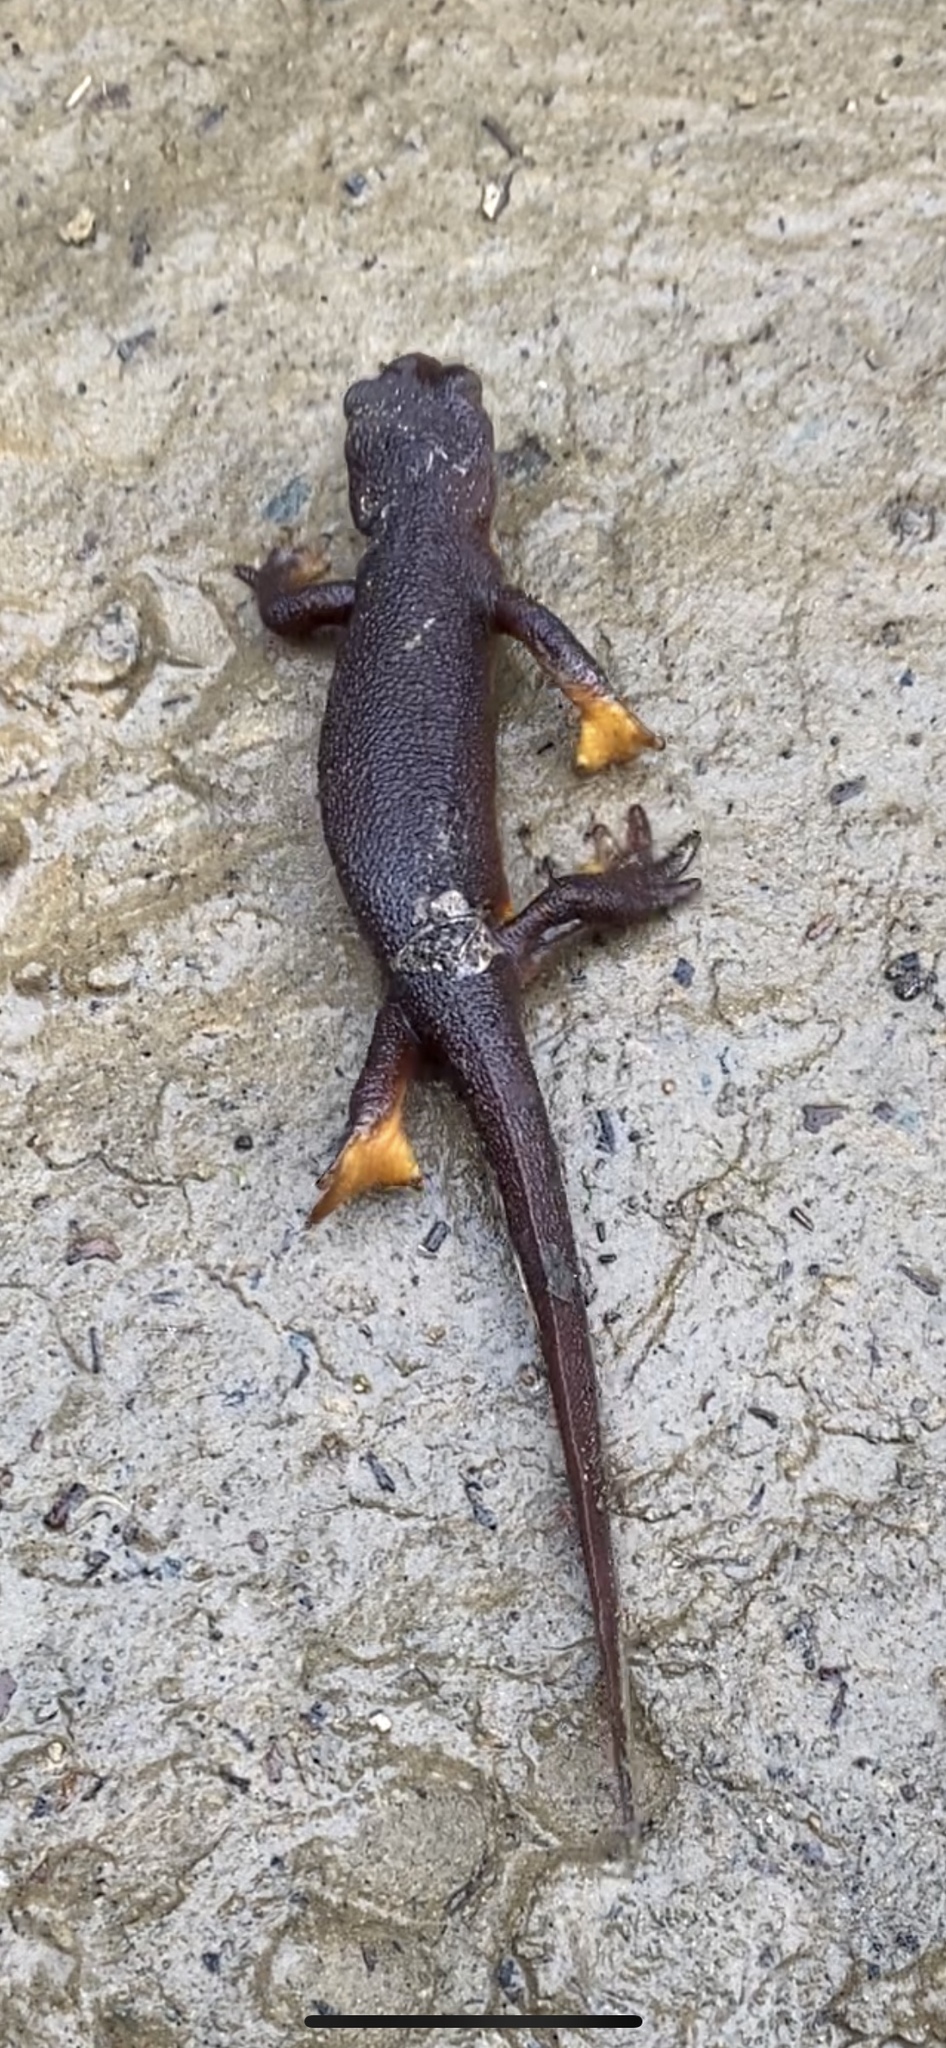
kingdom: Animalia
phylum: Chordata
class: Amphibia
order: Caudata
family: Salamandridae
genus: Taricha
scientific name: Taricha torosa
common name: California newt
